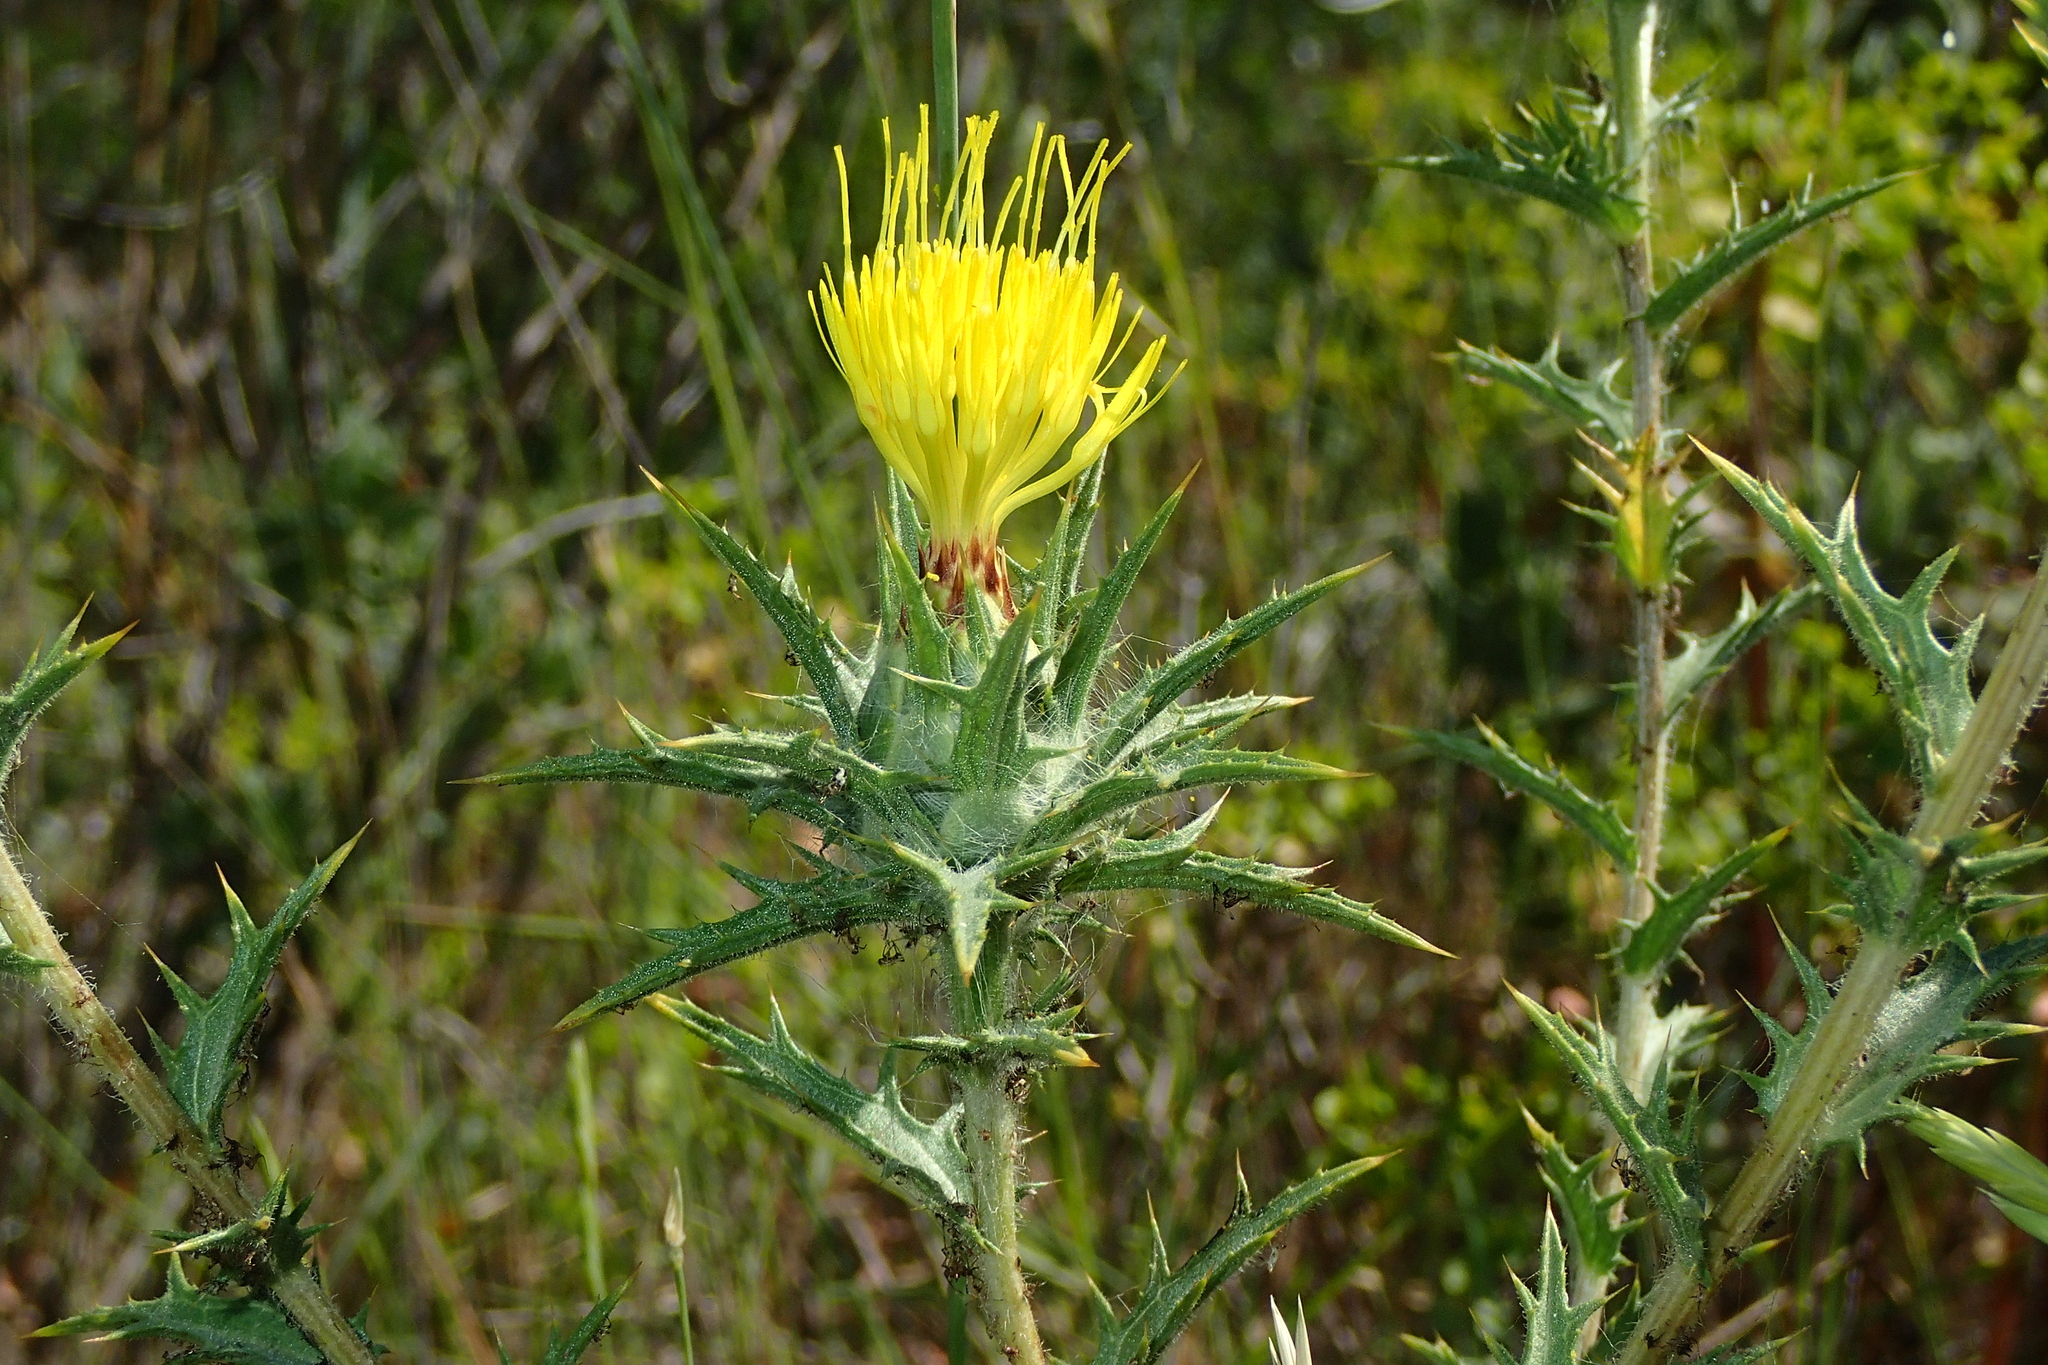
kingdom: Plantae
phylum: Tracheophyta
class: Magnoliopsida
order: Asterales
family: Asteraceae
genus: Carthamus
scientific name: Carthamus lanatus
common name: Downy safflower
